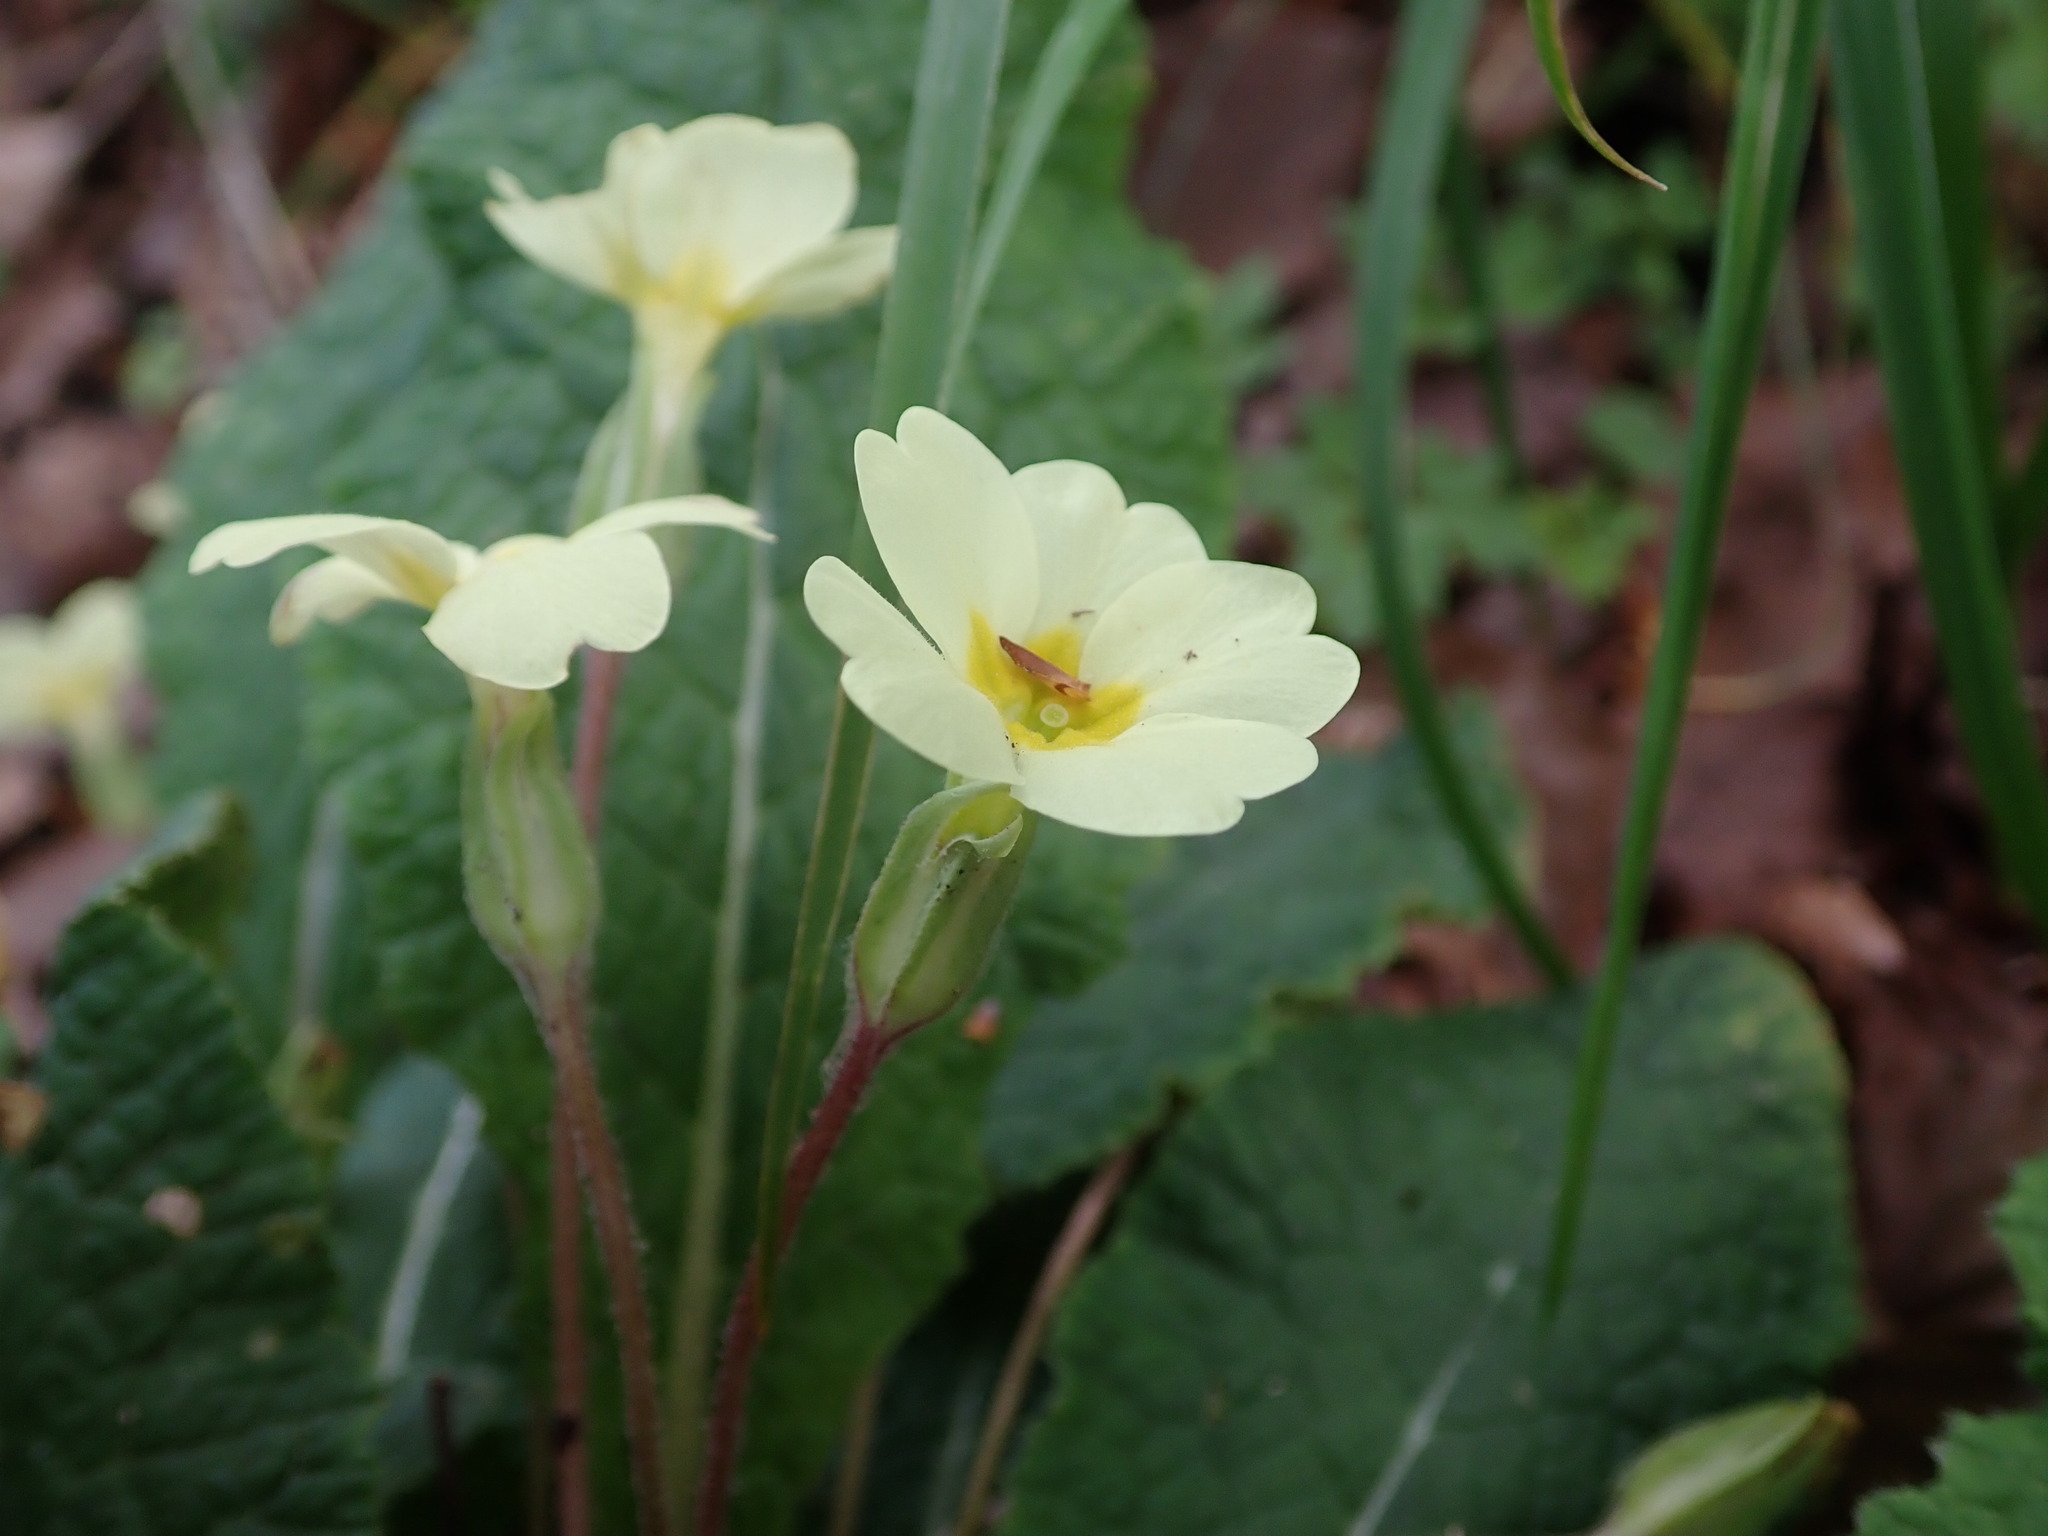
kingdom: Plantae
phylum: Tracheophyta
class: Magnoliopsida
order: Ericales
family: Primulaceae
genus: Primula
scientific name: Primula vulgaris
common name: Primrose
